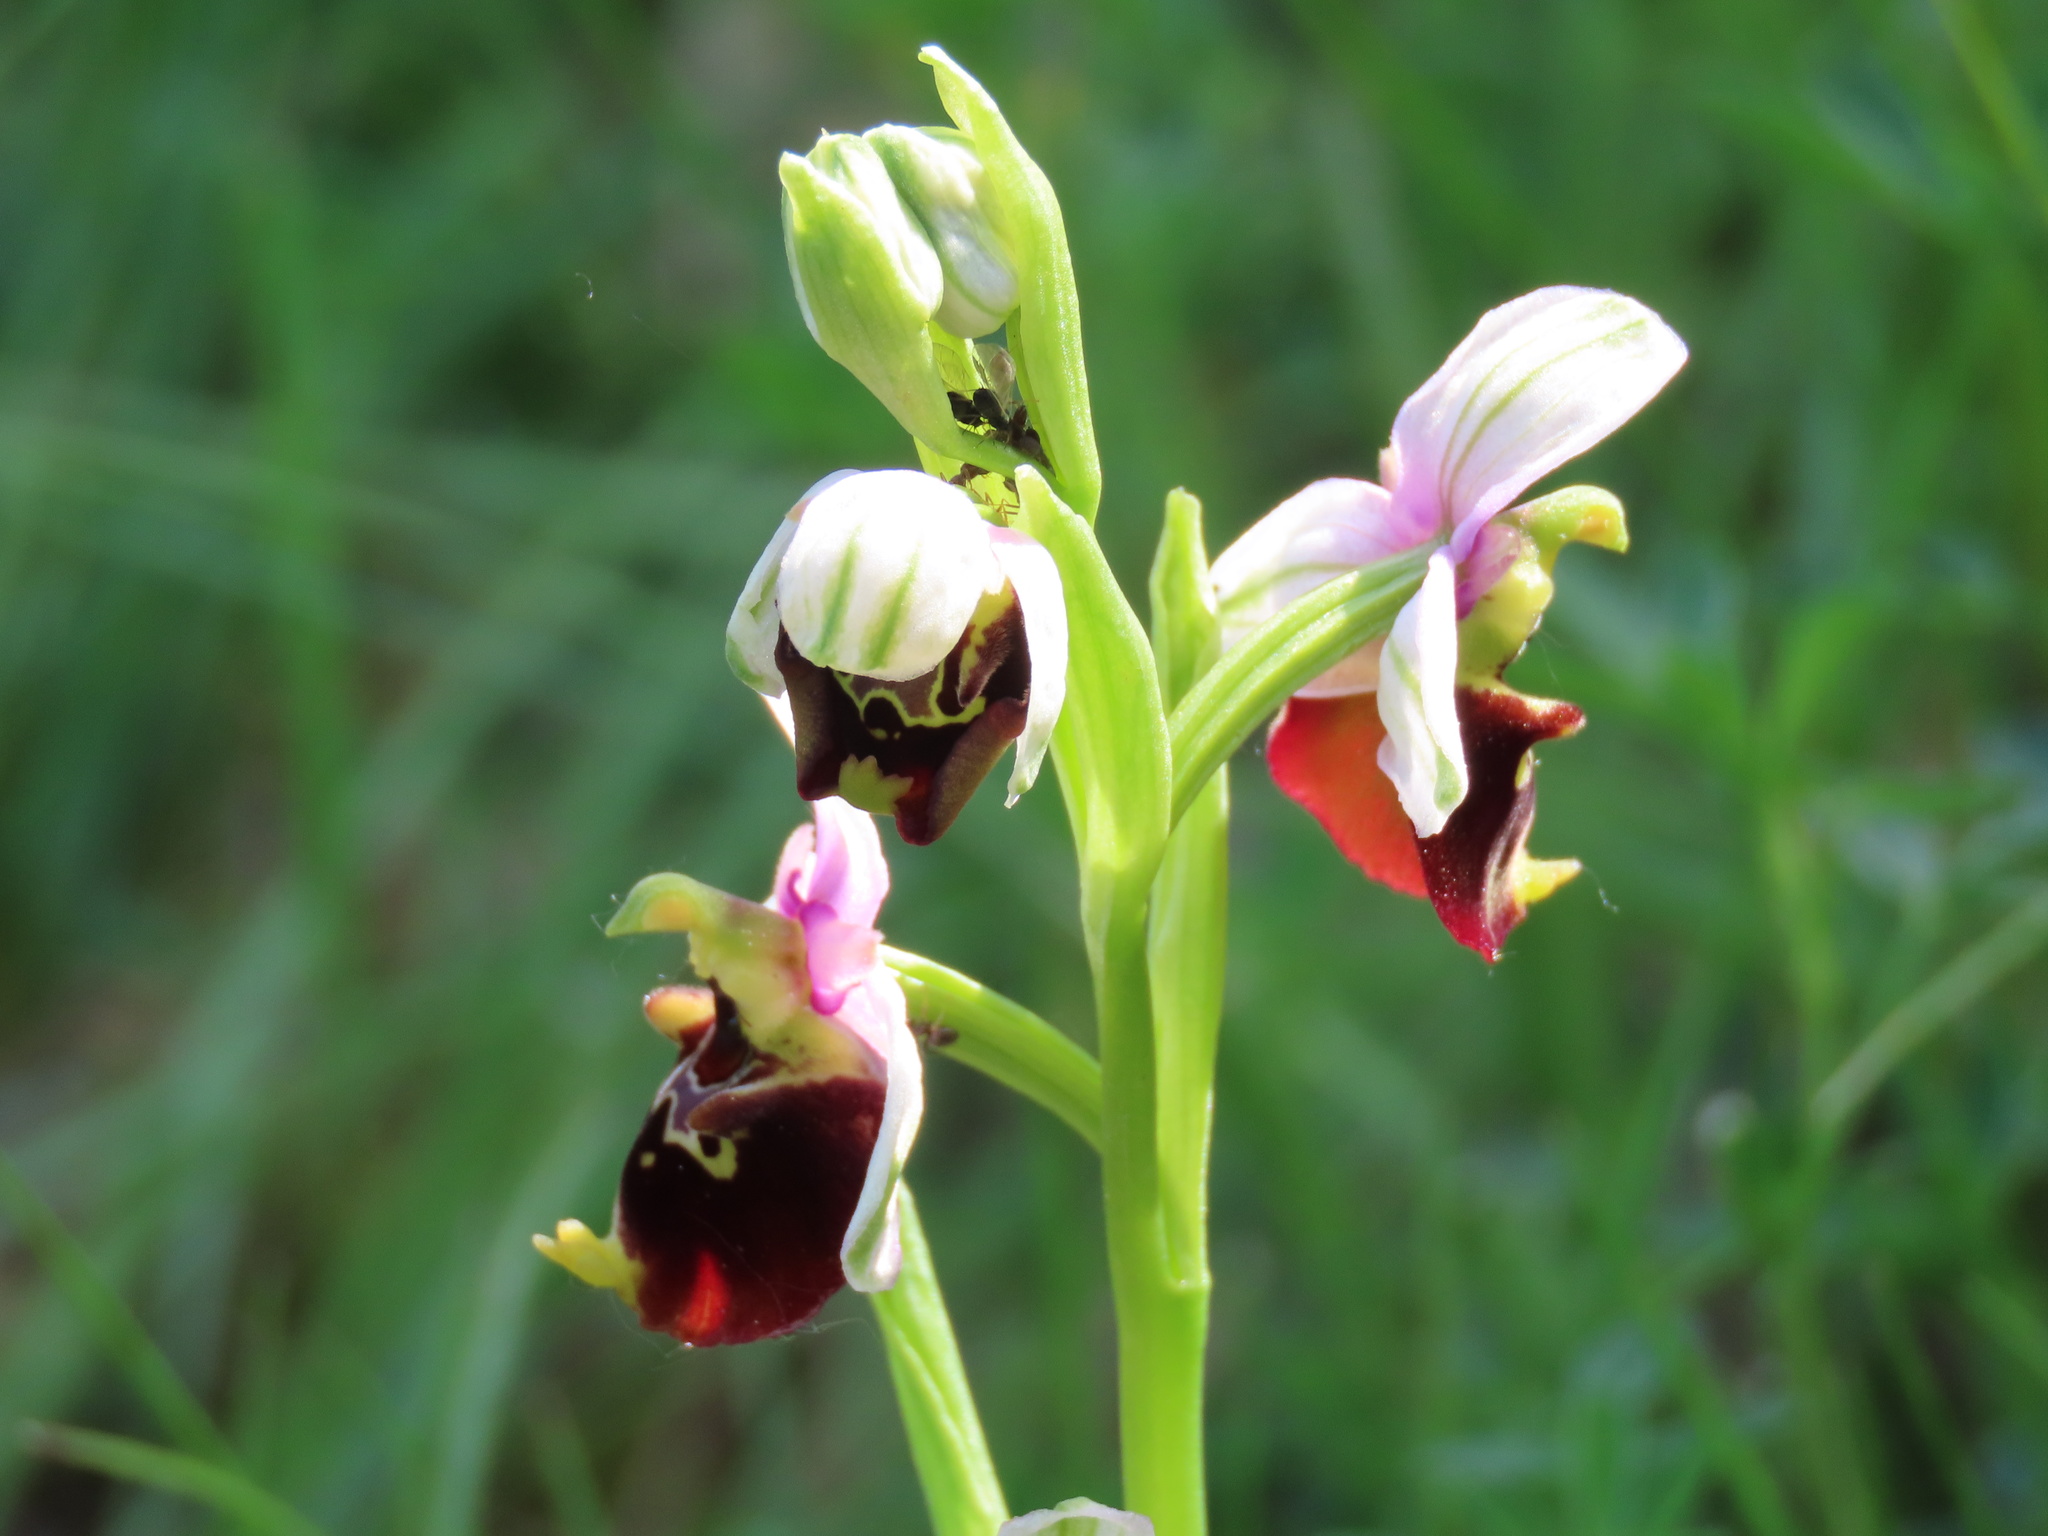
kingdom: Plantae
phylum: Tracheophyta
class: Liliopsida
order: Asparagales
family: Orchidaceae
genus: Ophrys
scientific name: Ophrys holosericea
